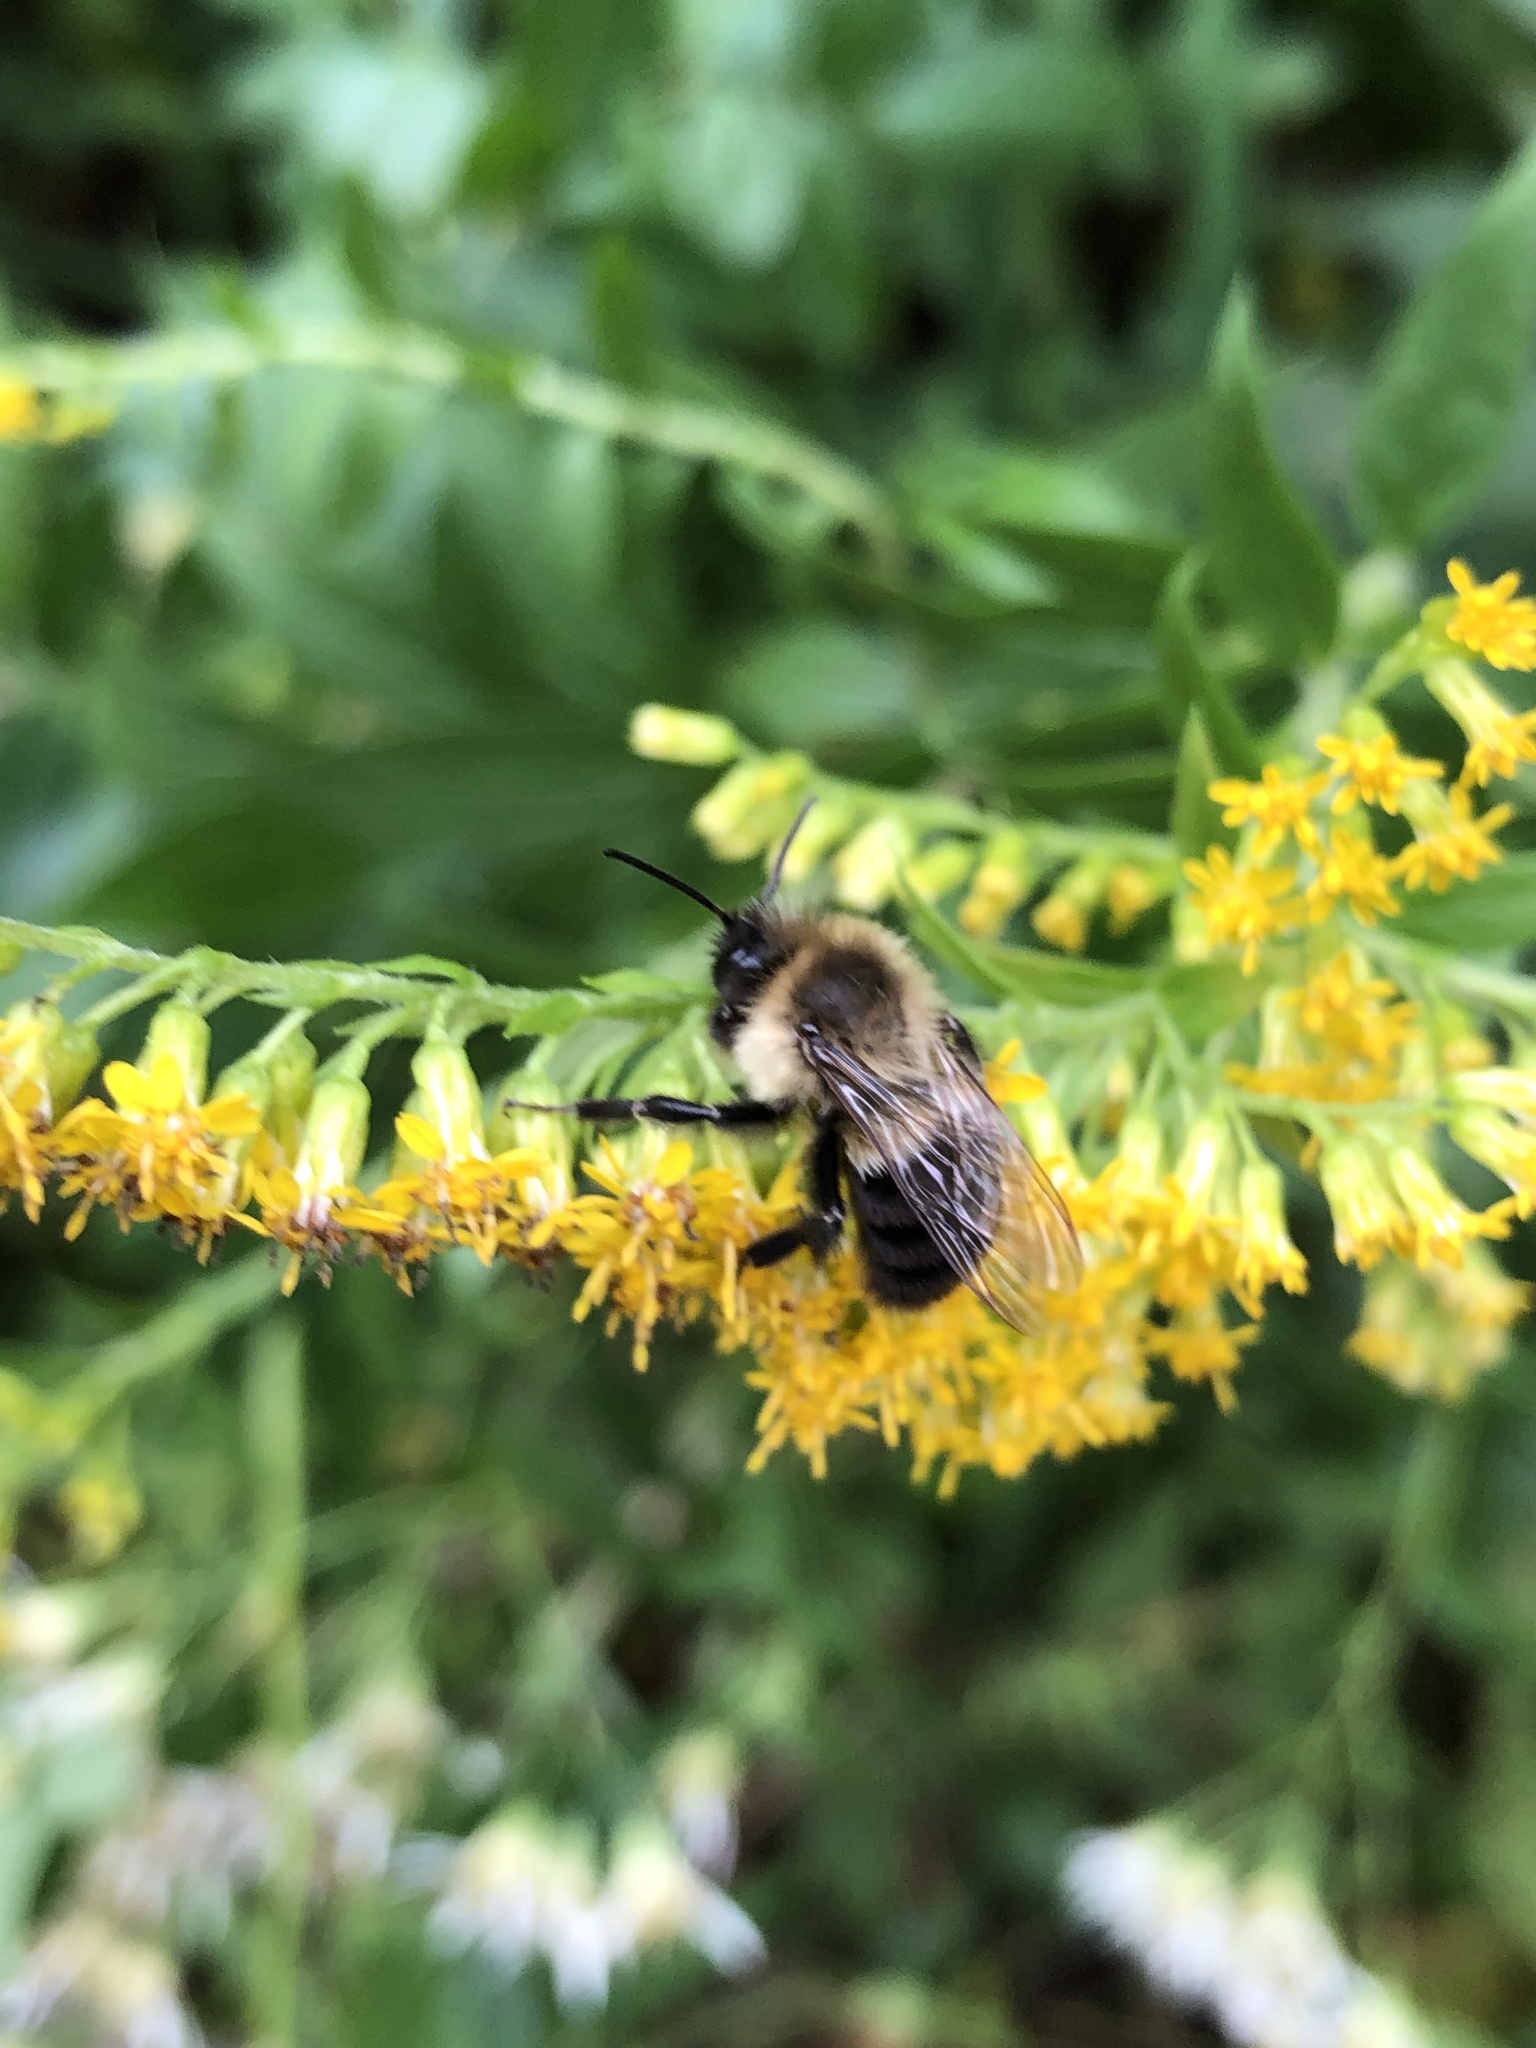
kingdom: Animalia
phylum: Arthropoda
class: Insecta
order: Hymenoptera
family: Apidae
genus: Bombus
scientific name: Bombus impatiens
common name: Common eastern bumble bee
